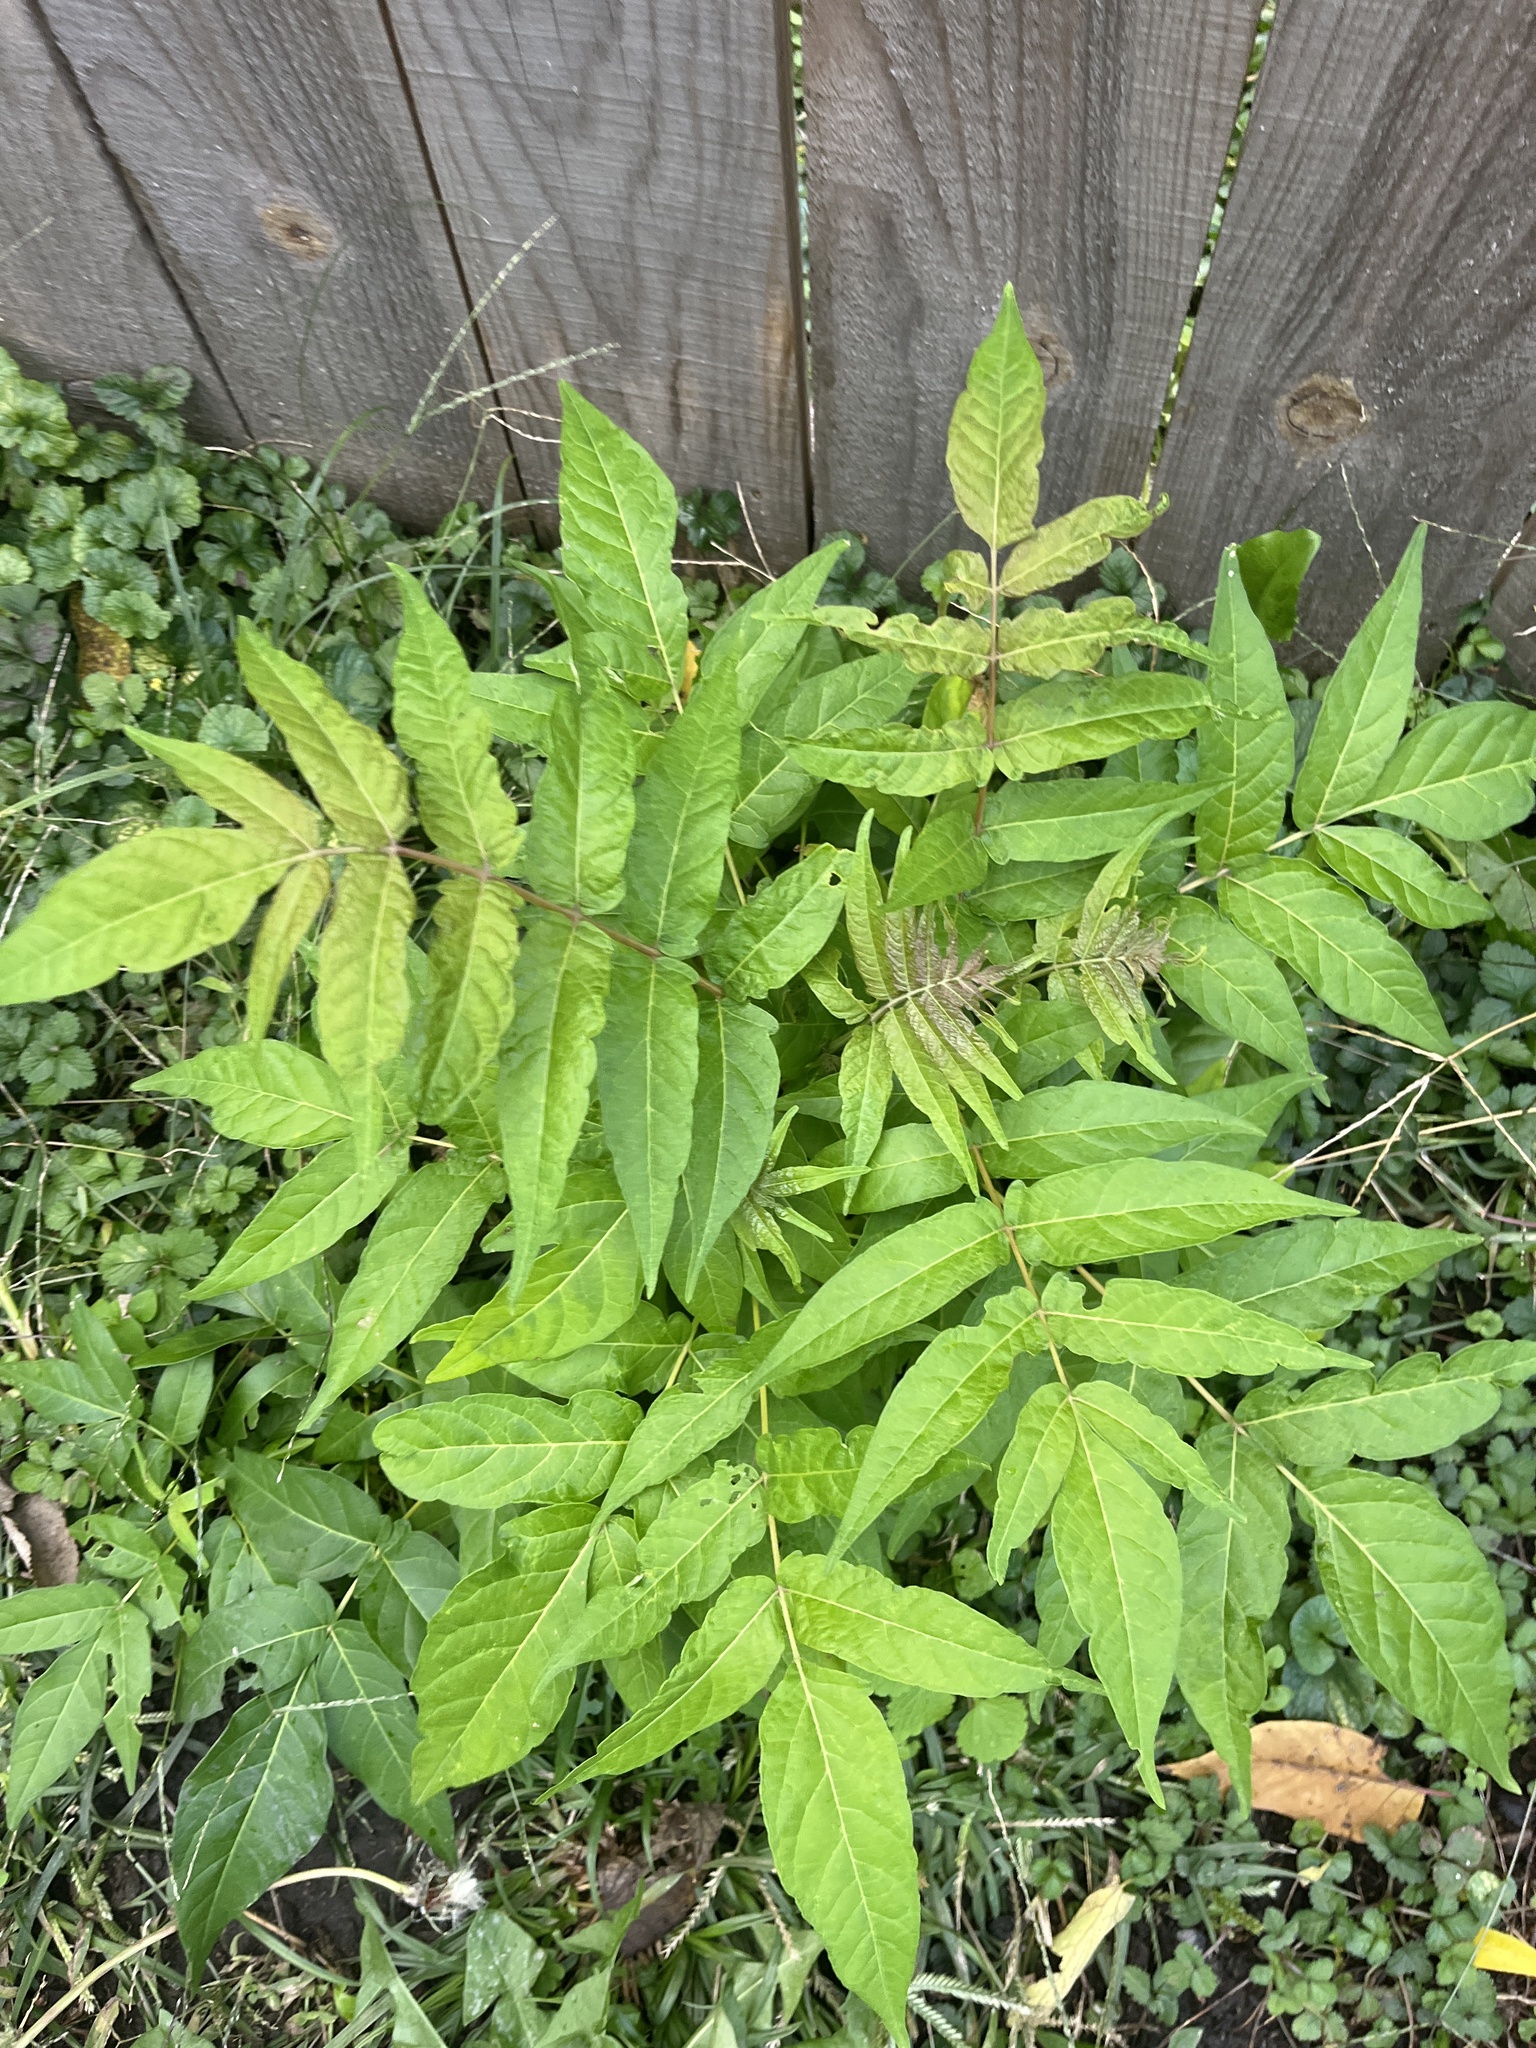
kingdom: Plantae
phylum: Tracheophyta
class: Magnoliopsida
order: Sapindales
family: Simaroubaceae
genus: Ailanthus
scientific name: Ailanthus altissima
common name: Tree-of-heaven
